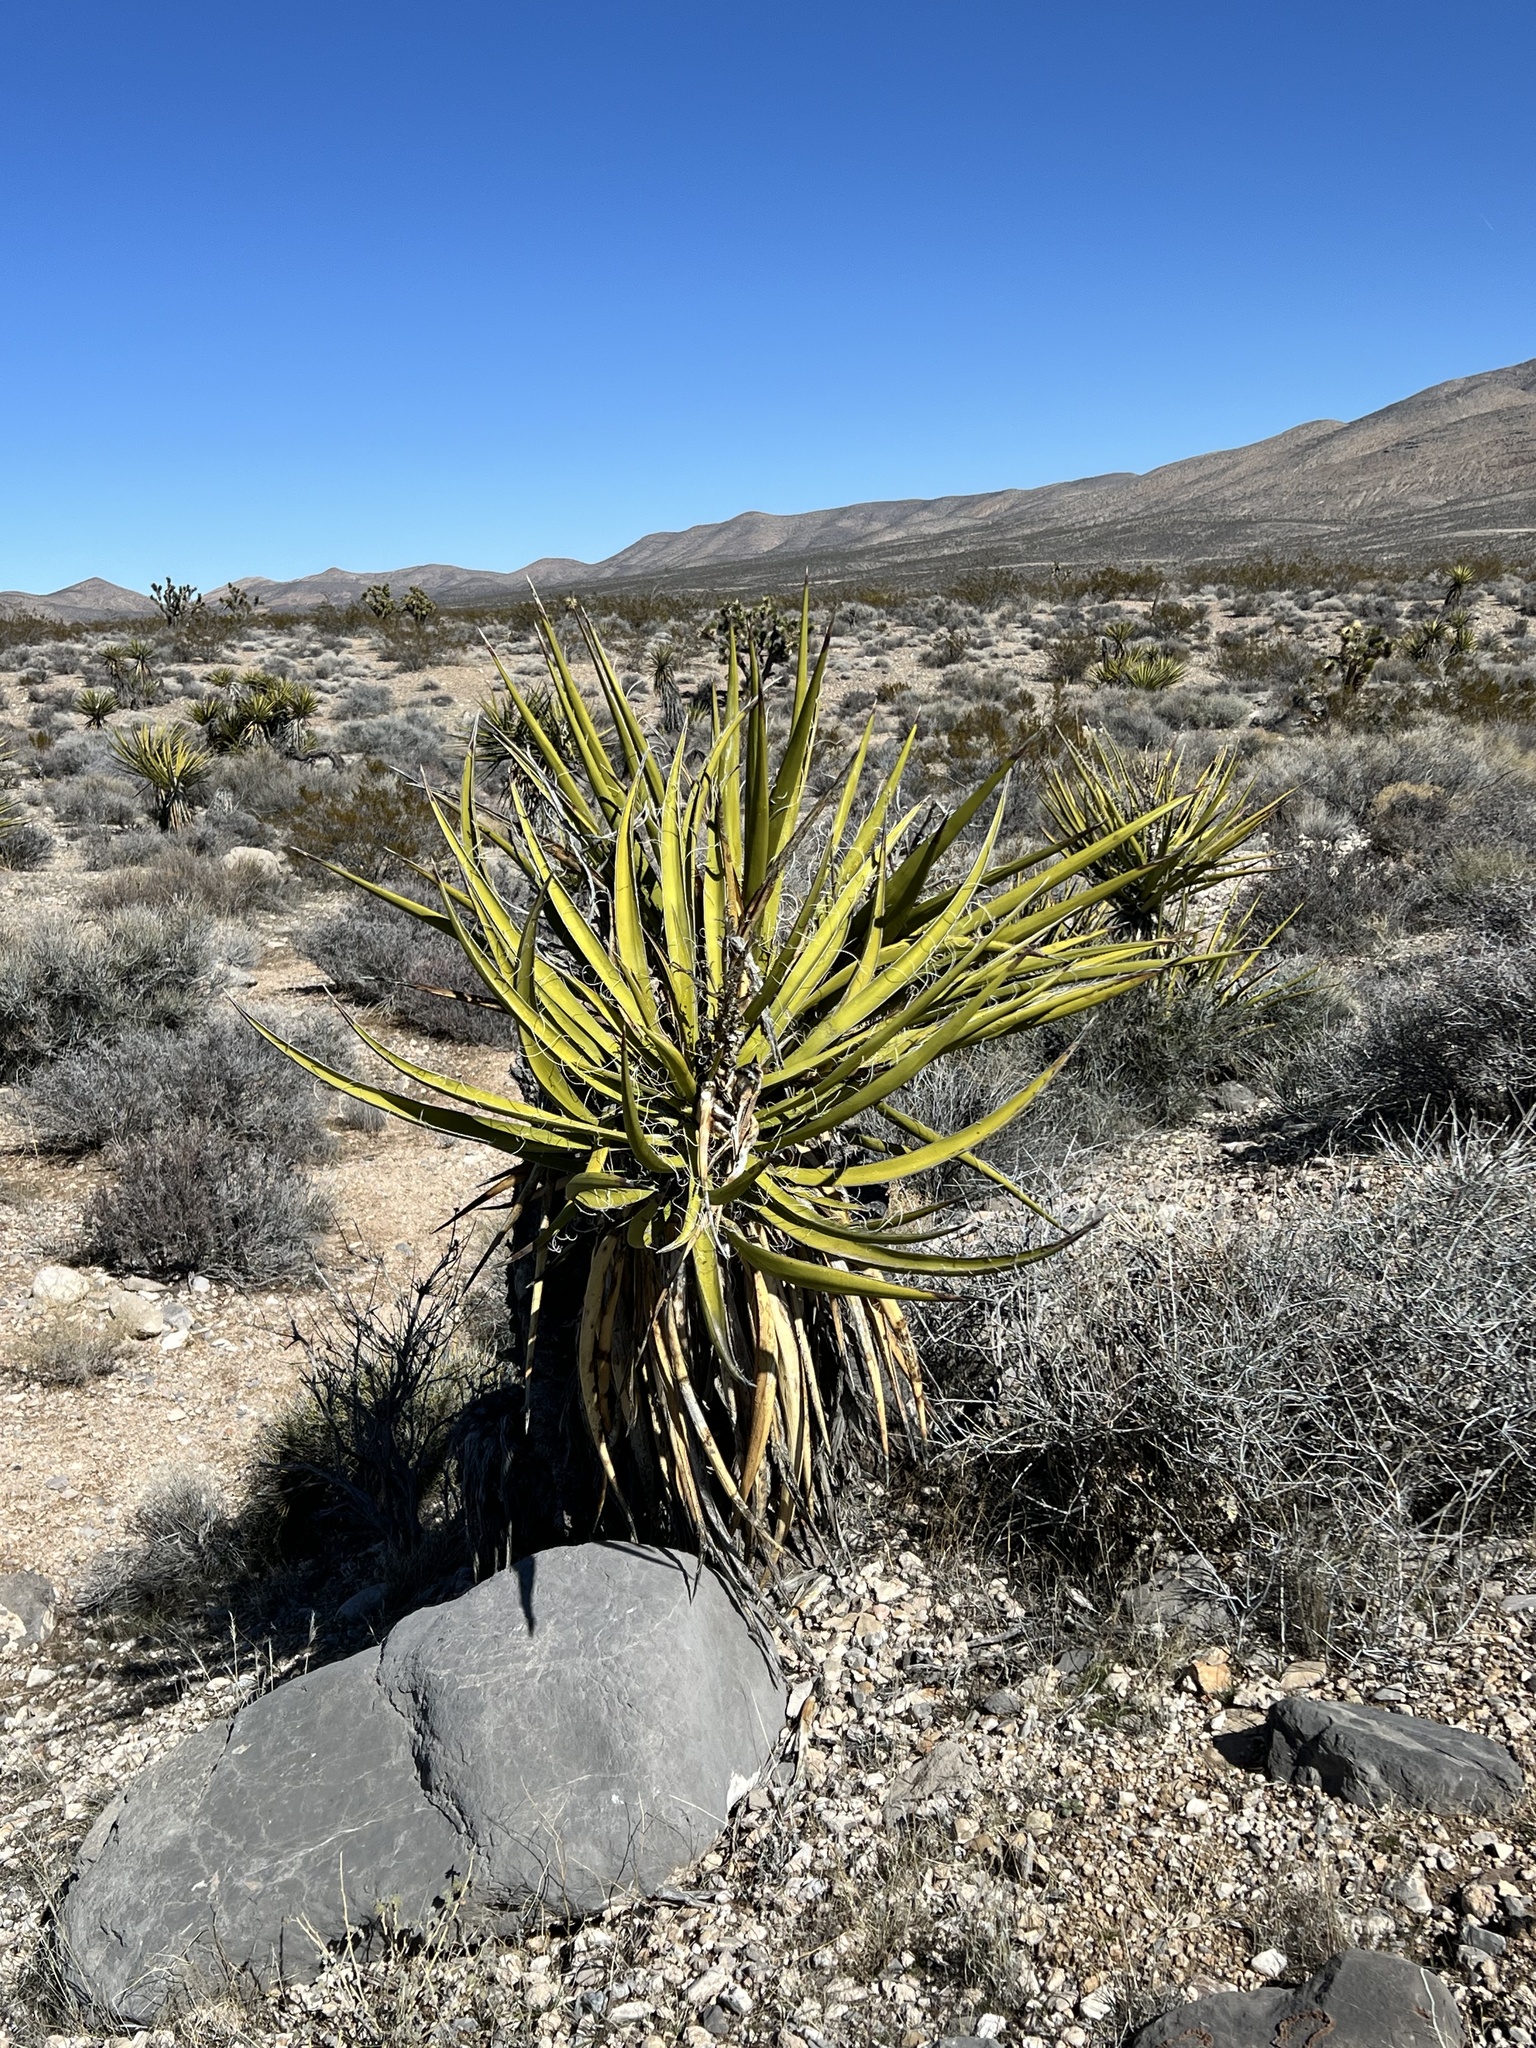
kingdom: Plantae
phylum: Tracheophyta
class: Liliopsida
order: Asparagales
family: Asparagaceae
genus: Yucca
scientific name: Yucca schidigera
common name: Mojave yucca
